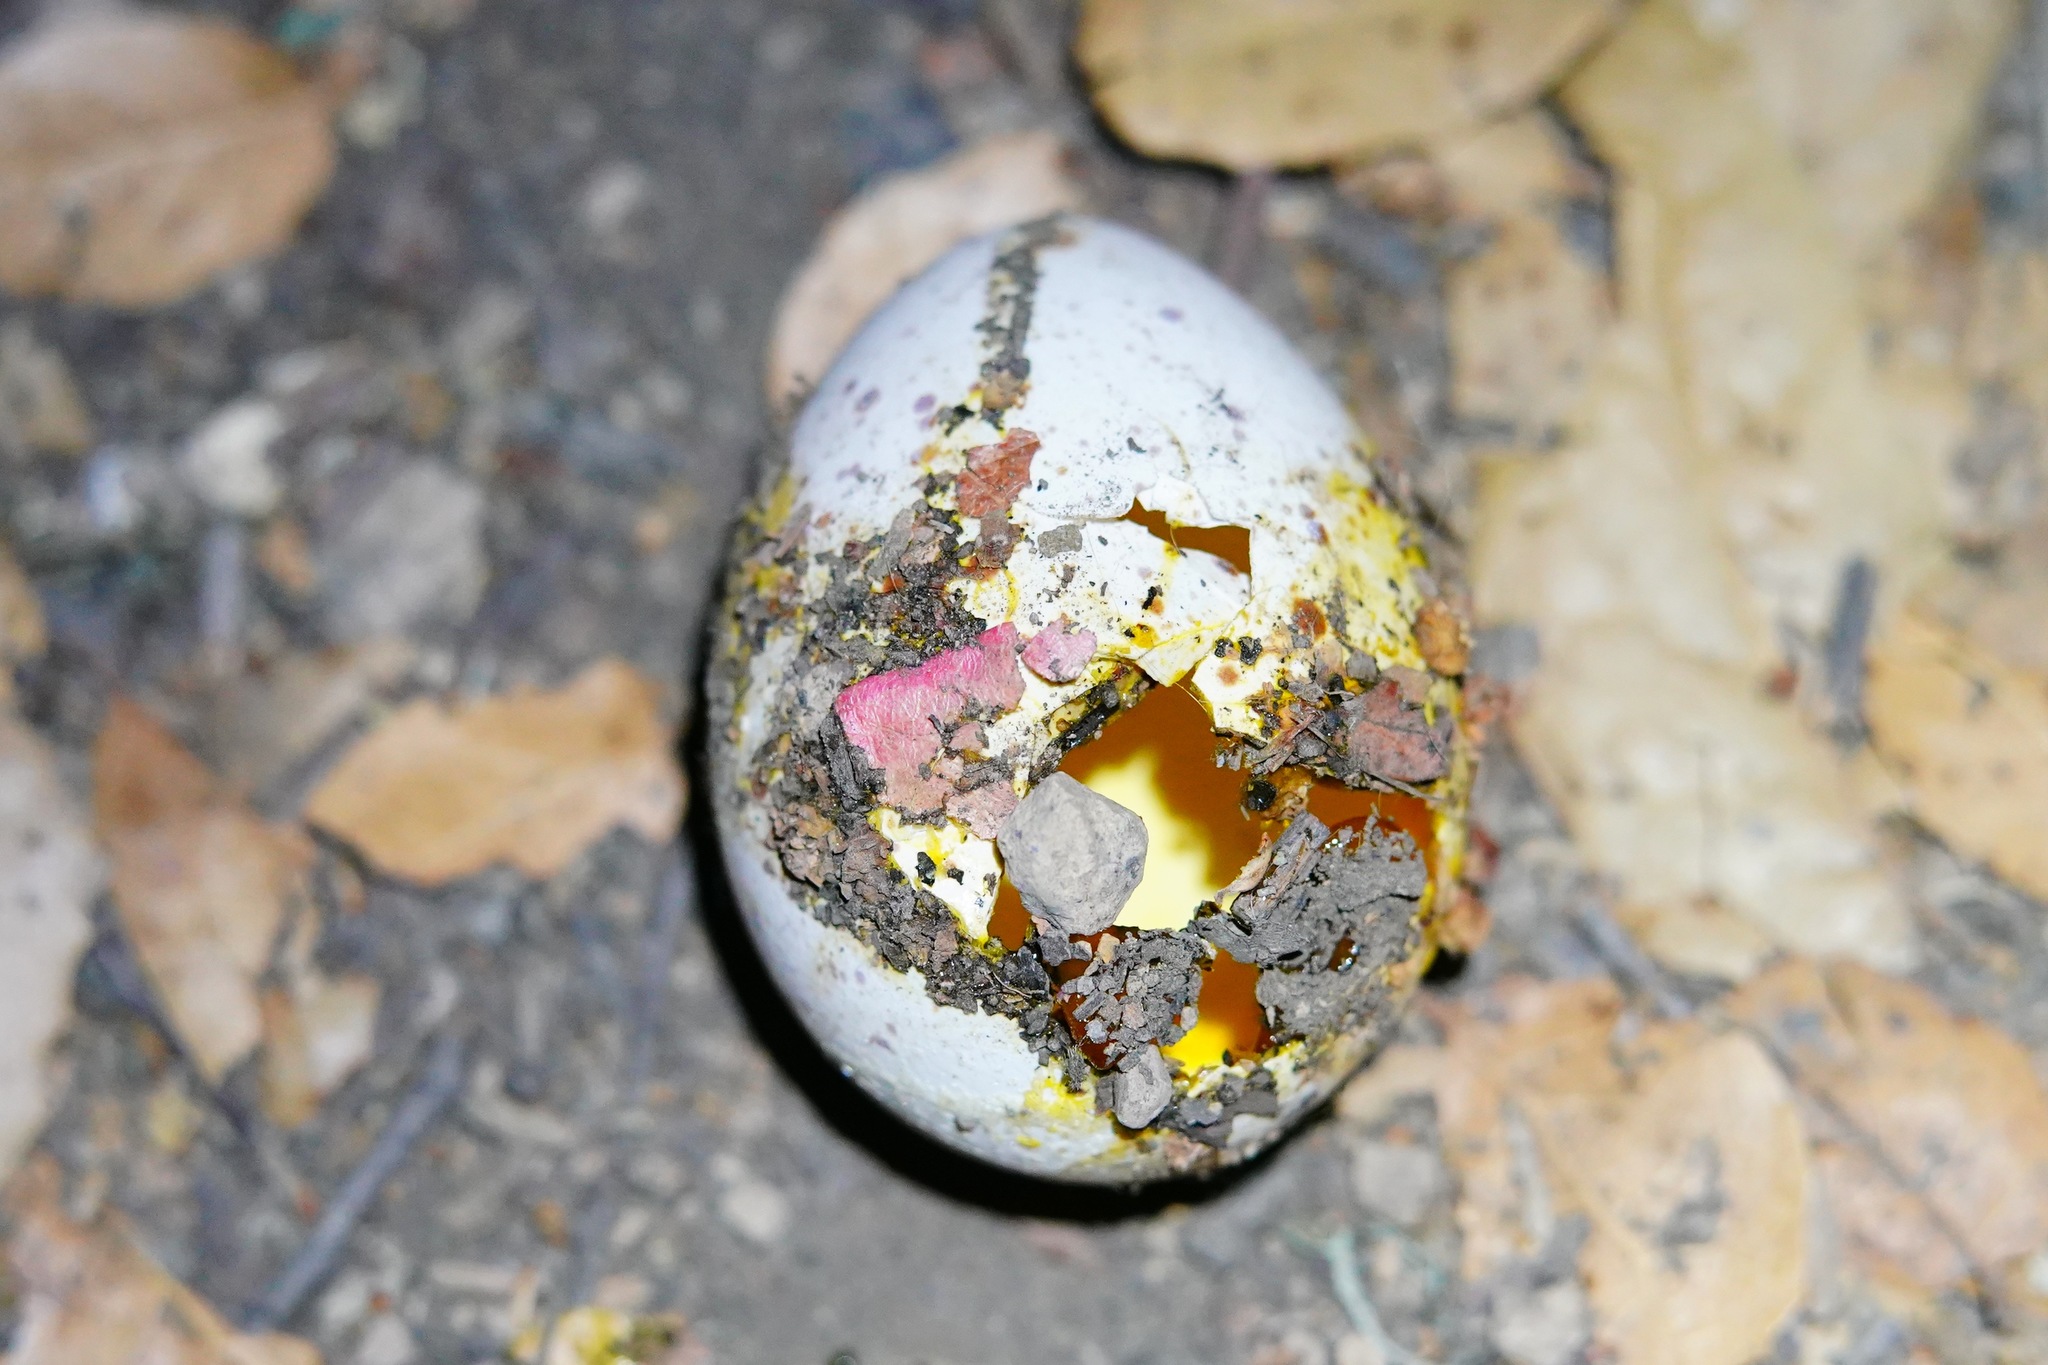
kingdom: Animalia
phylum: Chordata
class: Aves
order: Galliformes
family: Phasianidae
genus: Meleagris
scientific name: Meleagris gallopavo
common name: Wild turkey
